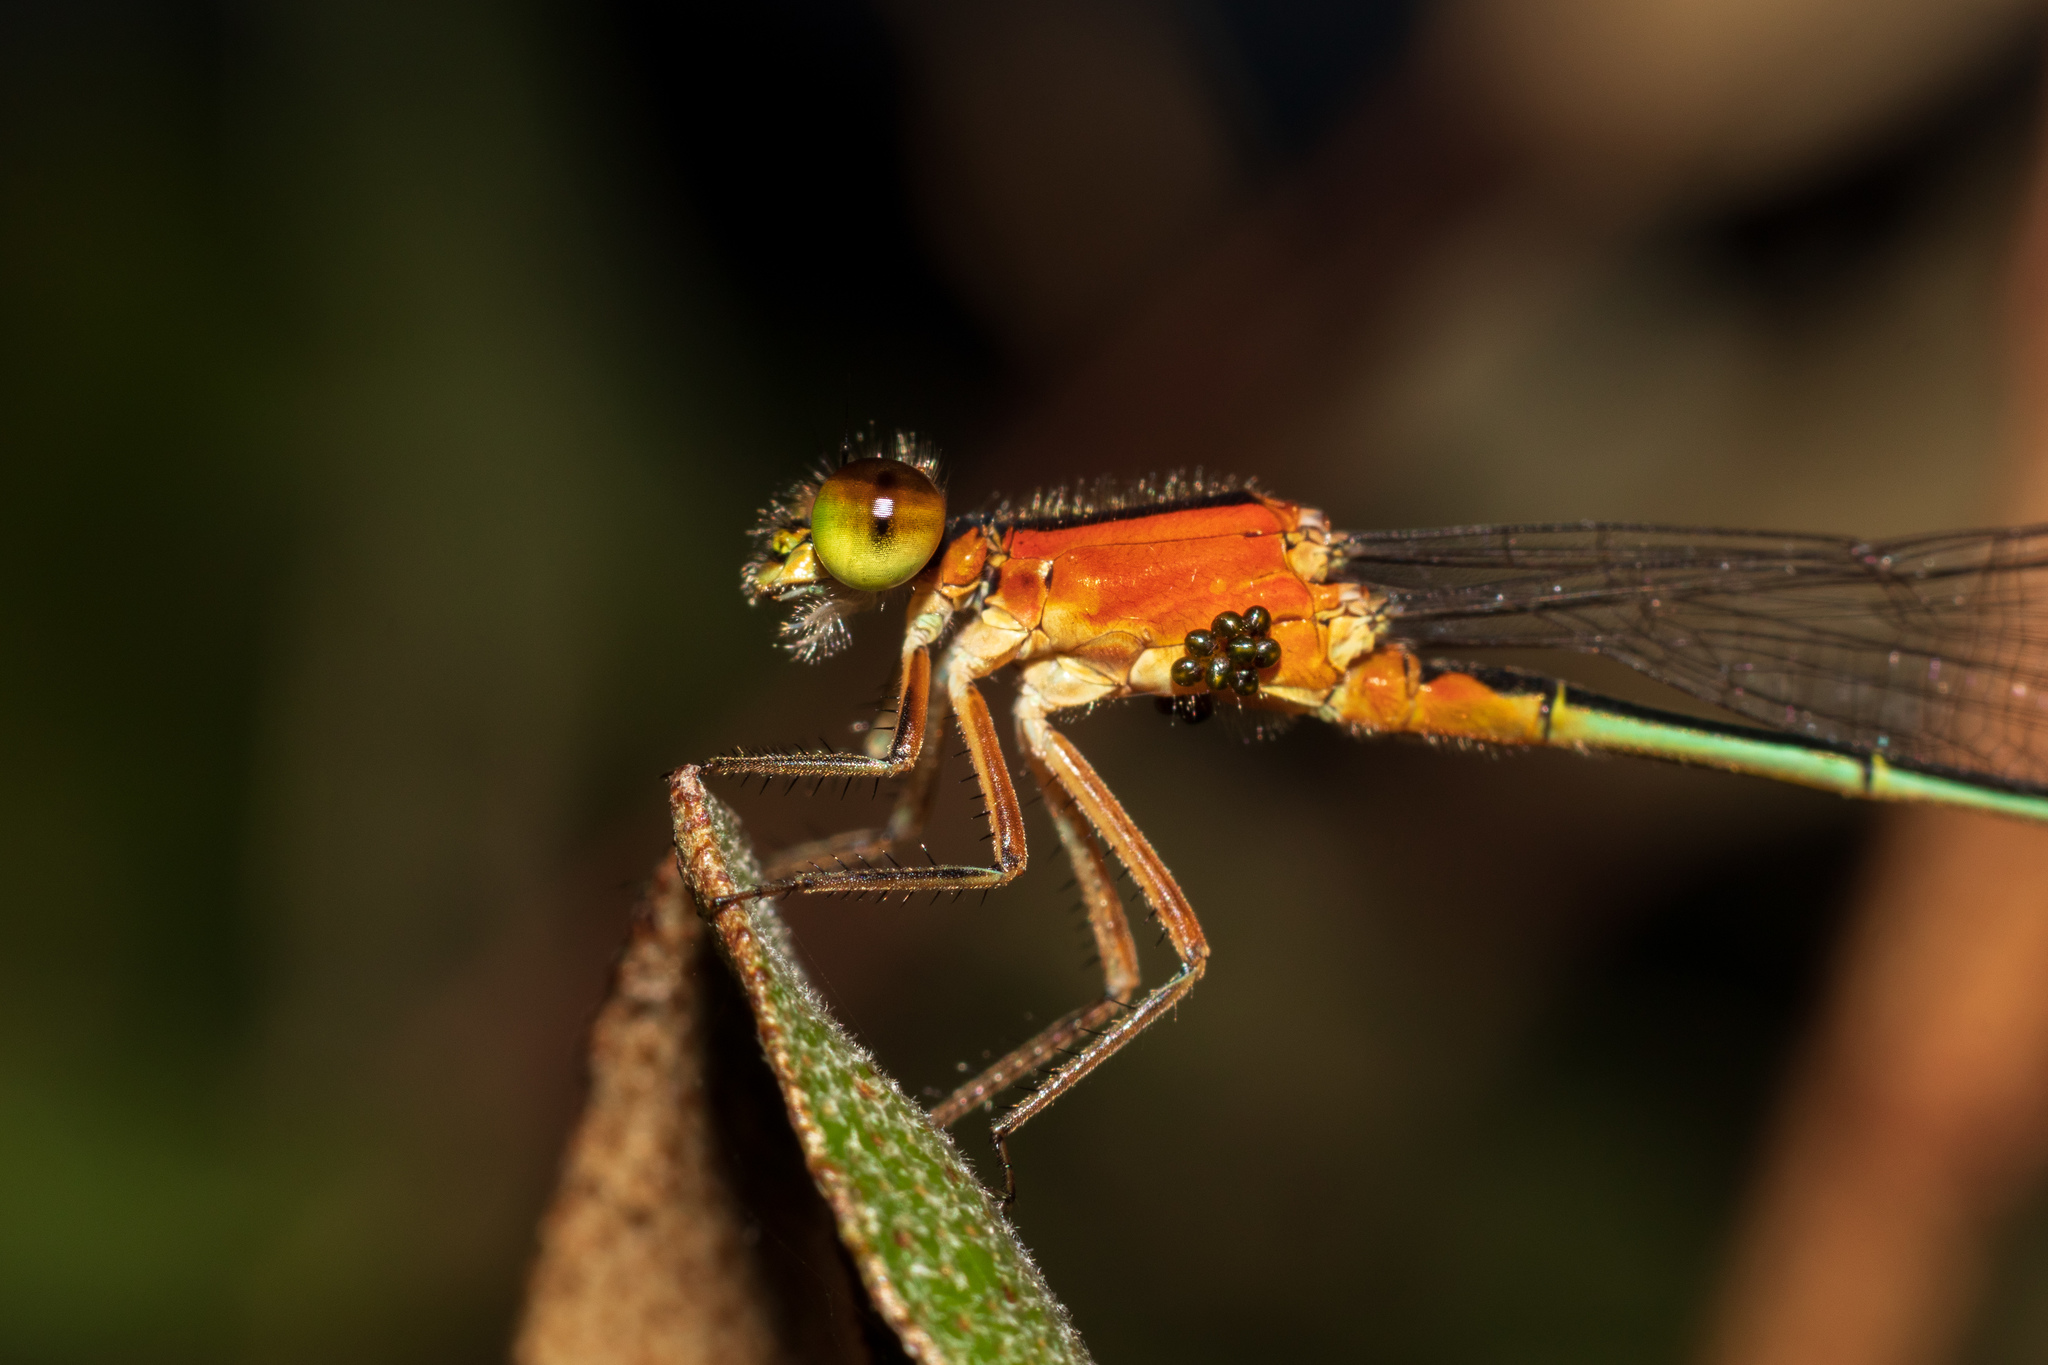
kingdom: Animalia
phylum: Arthropoda
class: Insecta
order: Odonata
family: Coenagrionidae
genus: Ischnura
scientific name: Ischnura ramburii
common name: Rambur's forktail
